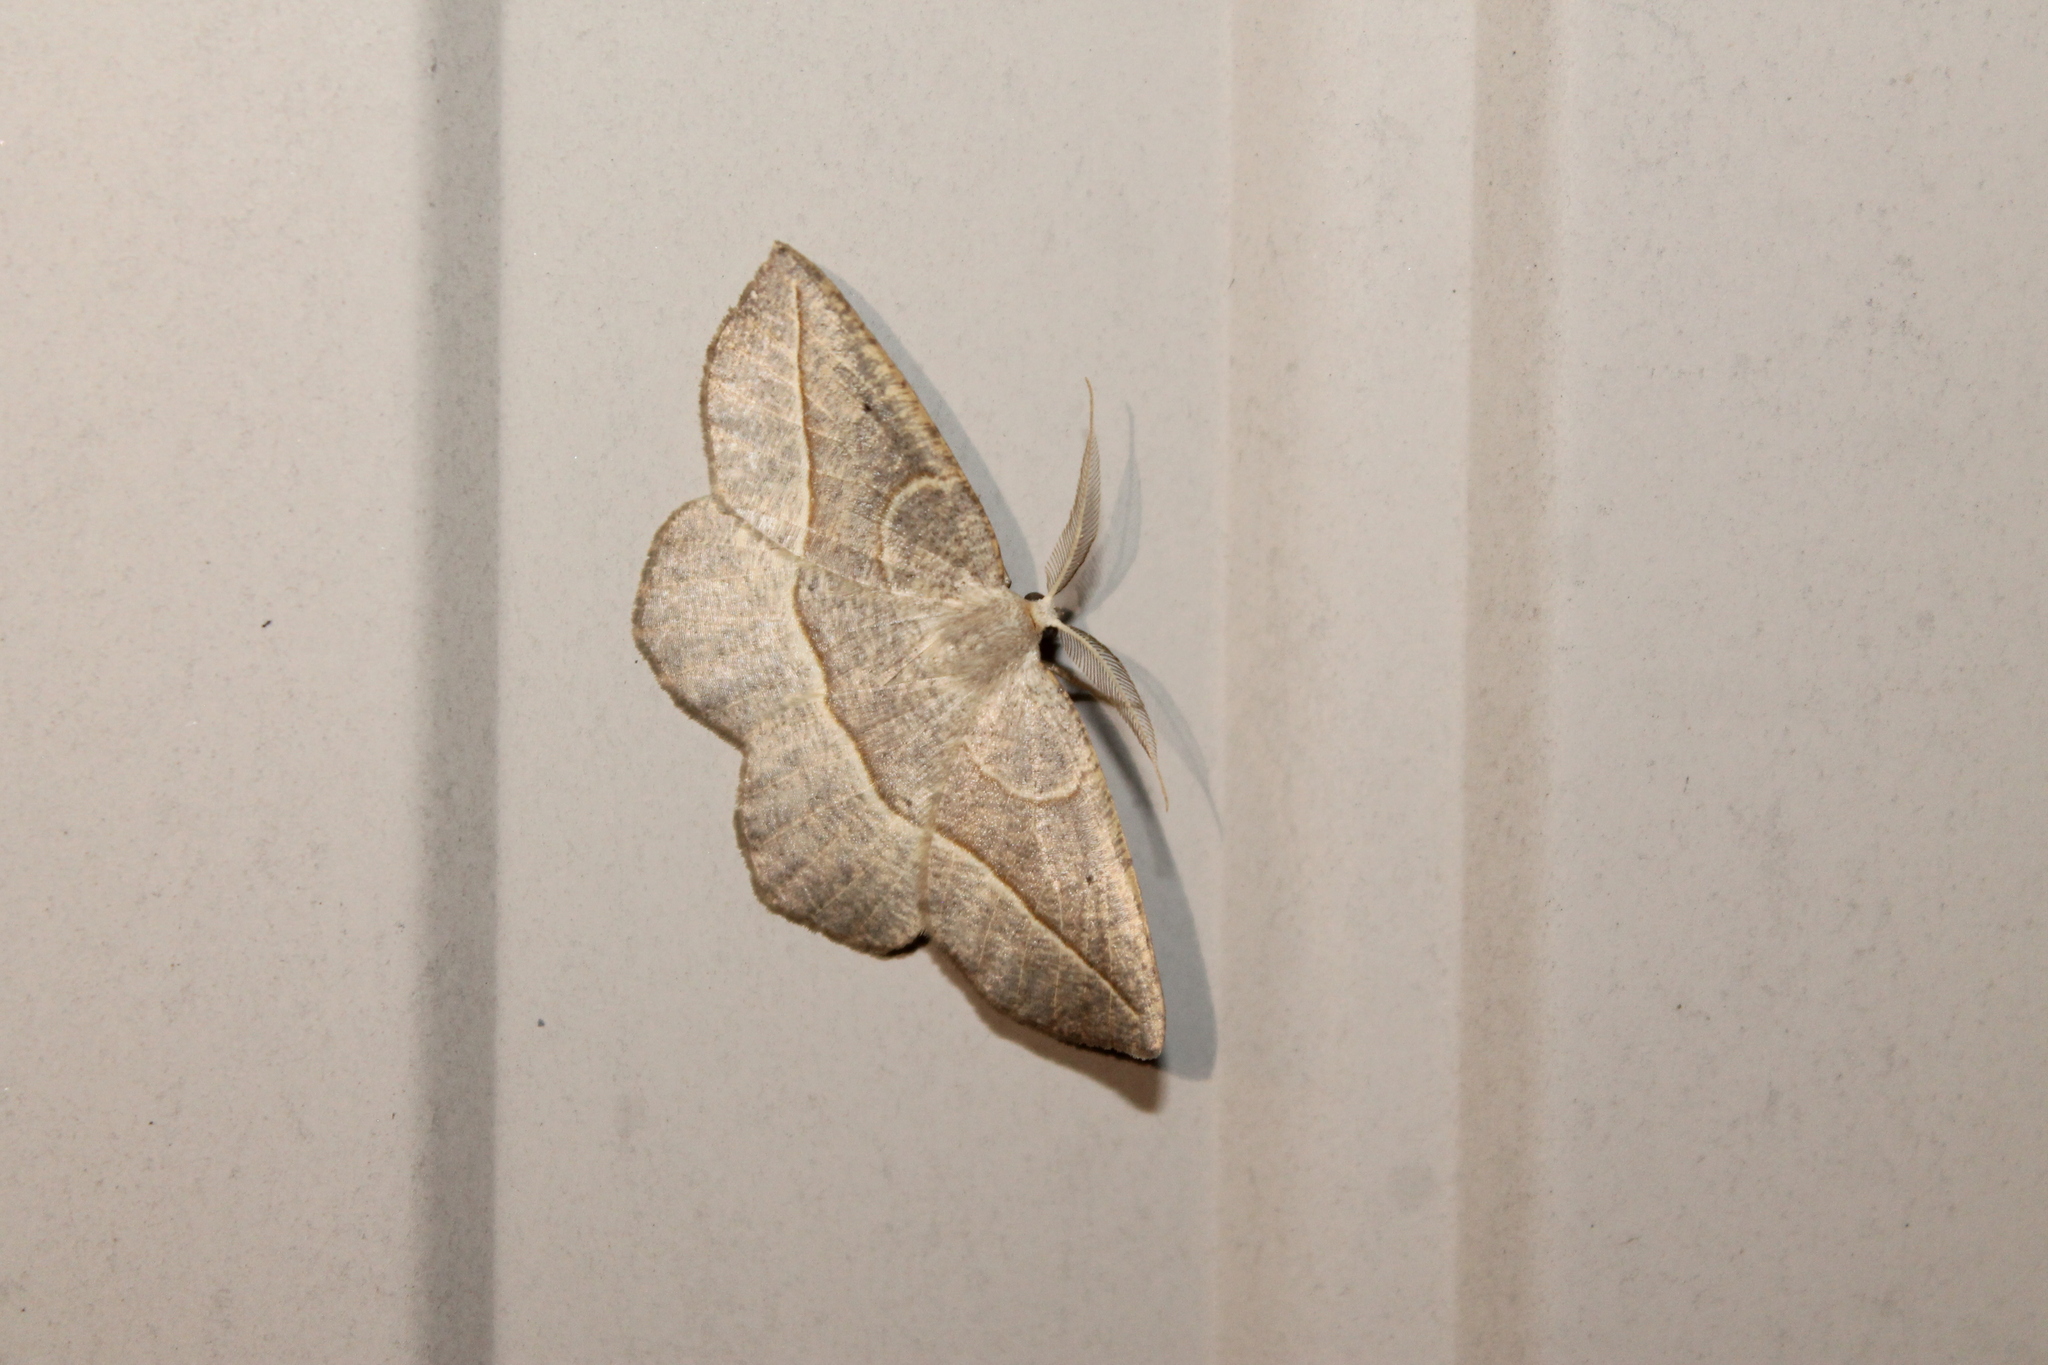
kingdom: Animalia
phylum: Arthropoda
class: Insecta
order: Lepidoptera
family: Geometridae
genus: Eusarca
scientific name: Eusarca confusaria
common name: Confused eusarca
